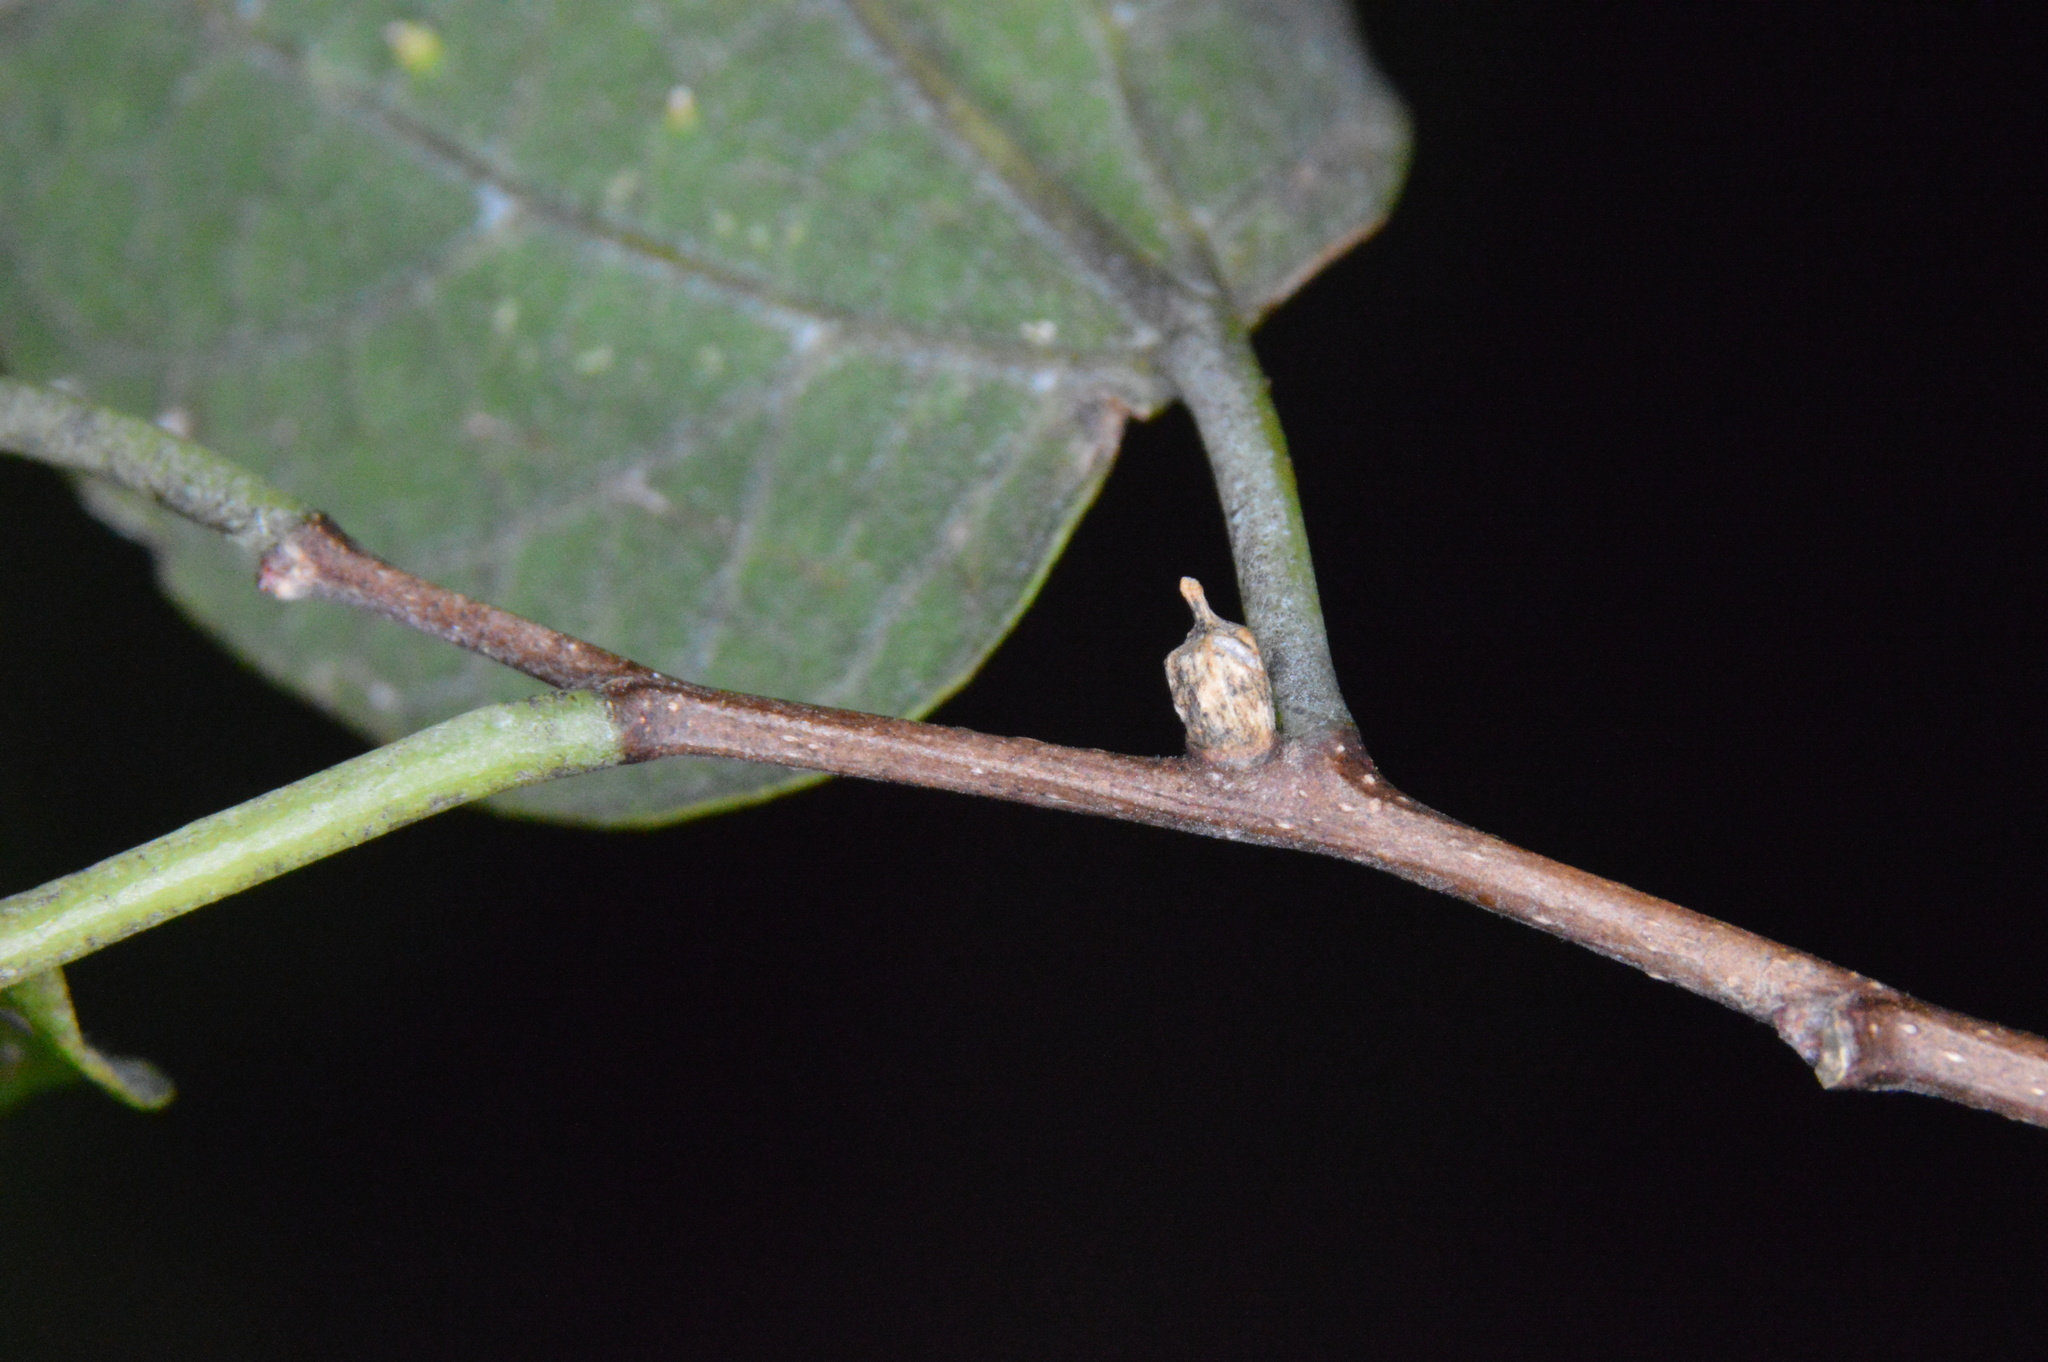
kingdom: Animalia
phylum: Arthropoda
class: Insecta
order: Diptera
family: Cecidomyiidae
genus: Celticecis
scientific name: Celticecis ramicola
